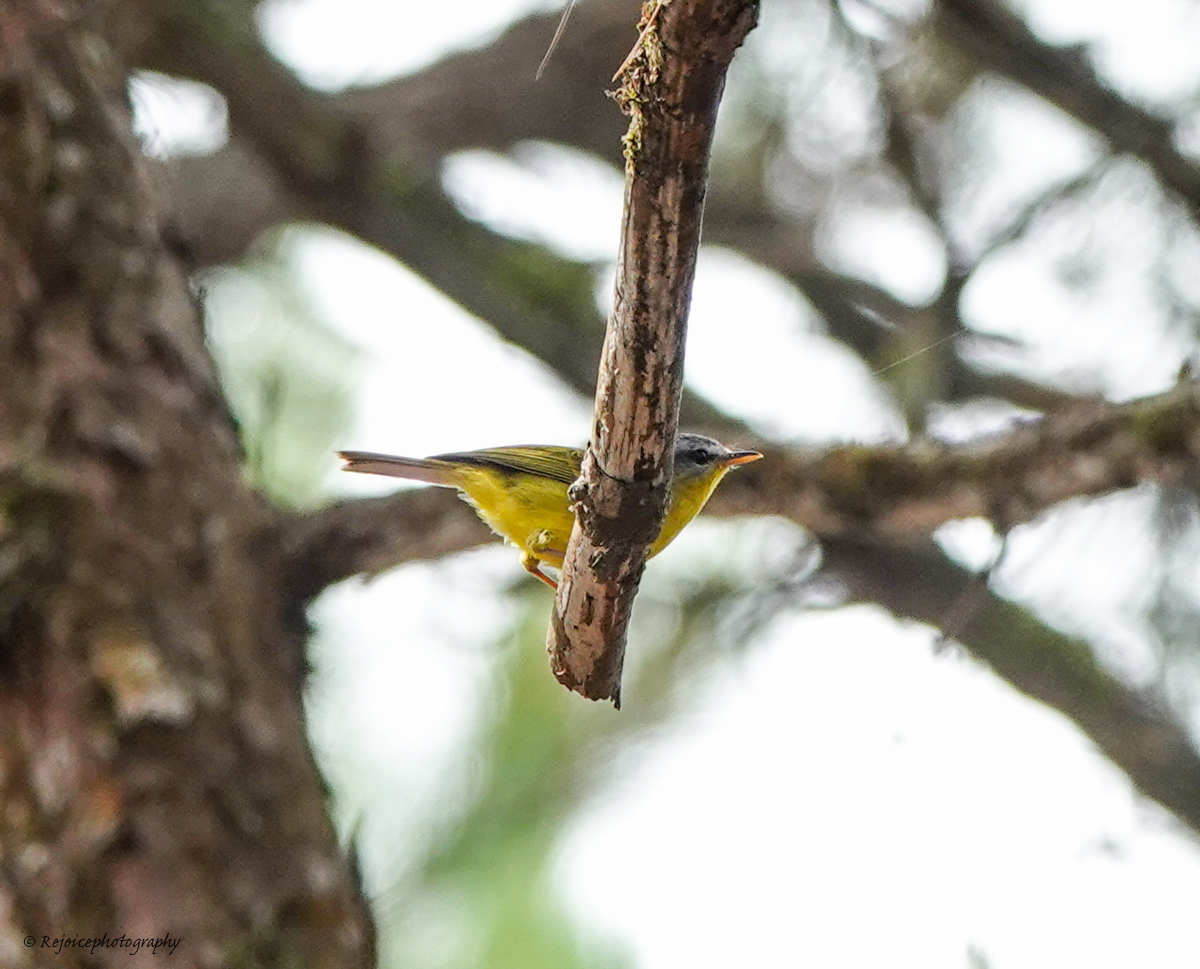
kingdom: Animalia
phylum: Chordata
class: Aves
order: Passeriformes
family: Phylloscopidae
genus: Phylloscopus
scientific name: Phylloscopus xanthoschistos
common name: Grey-hooded warbler
